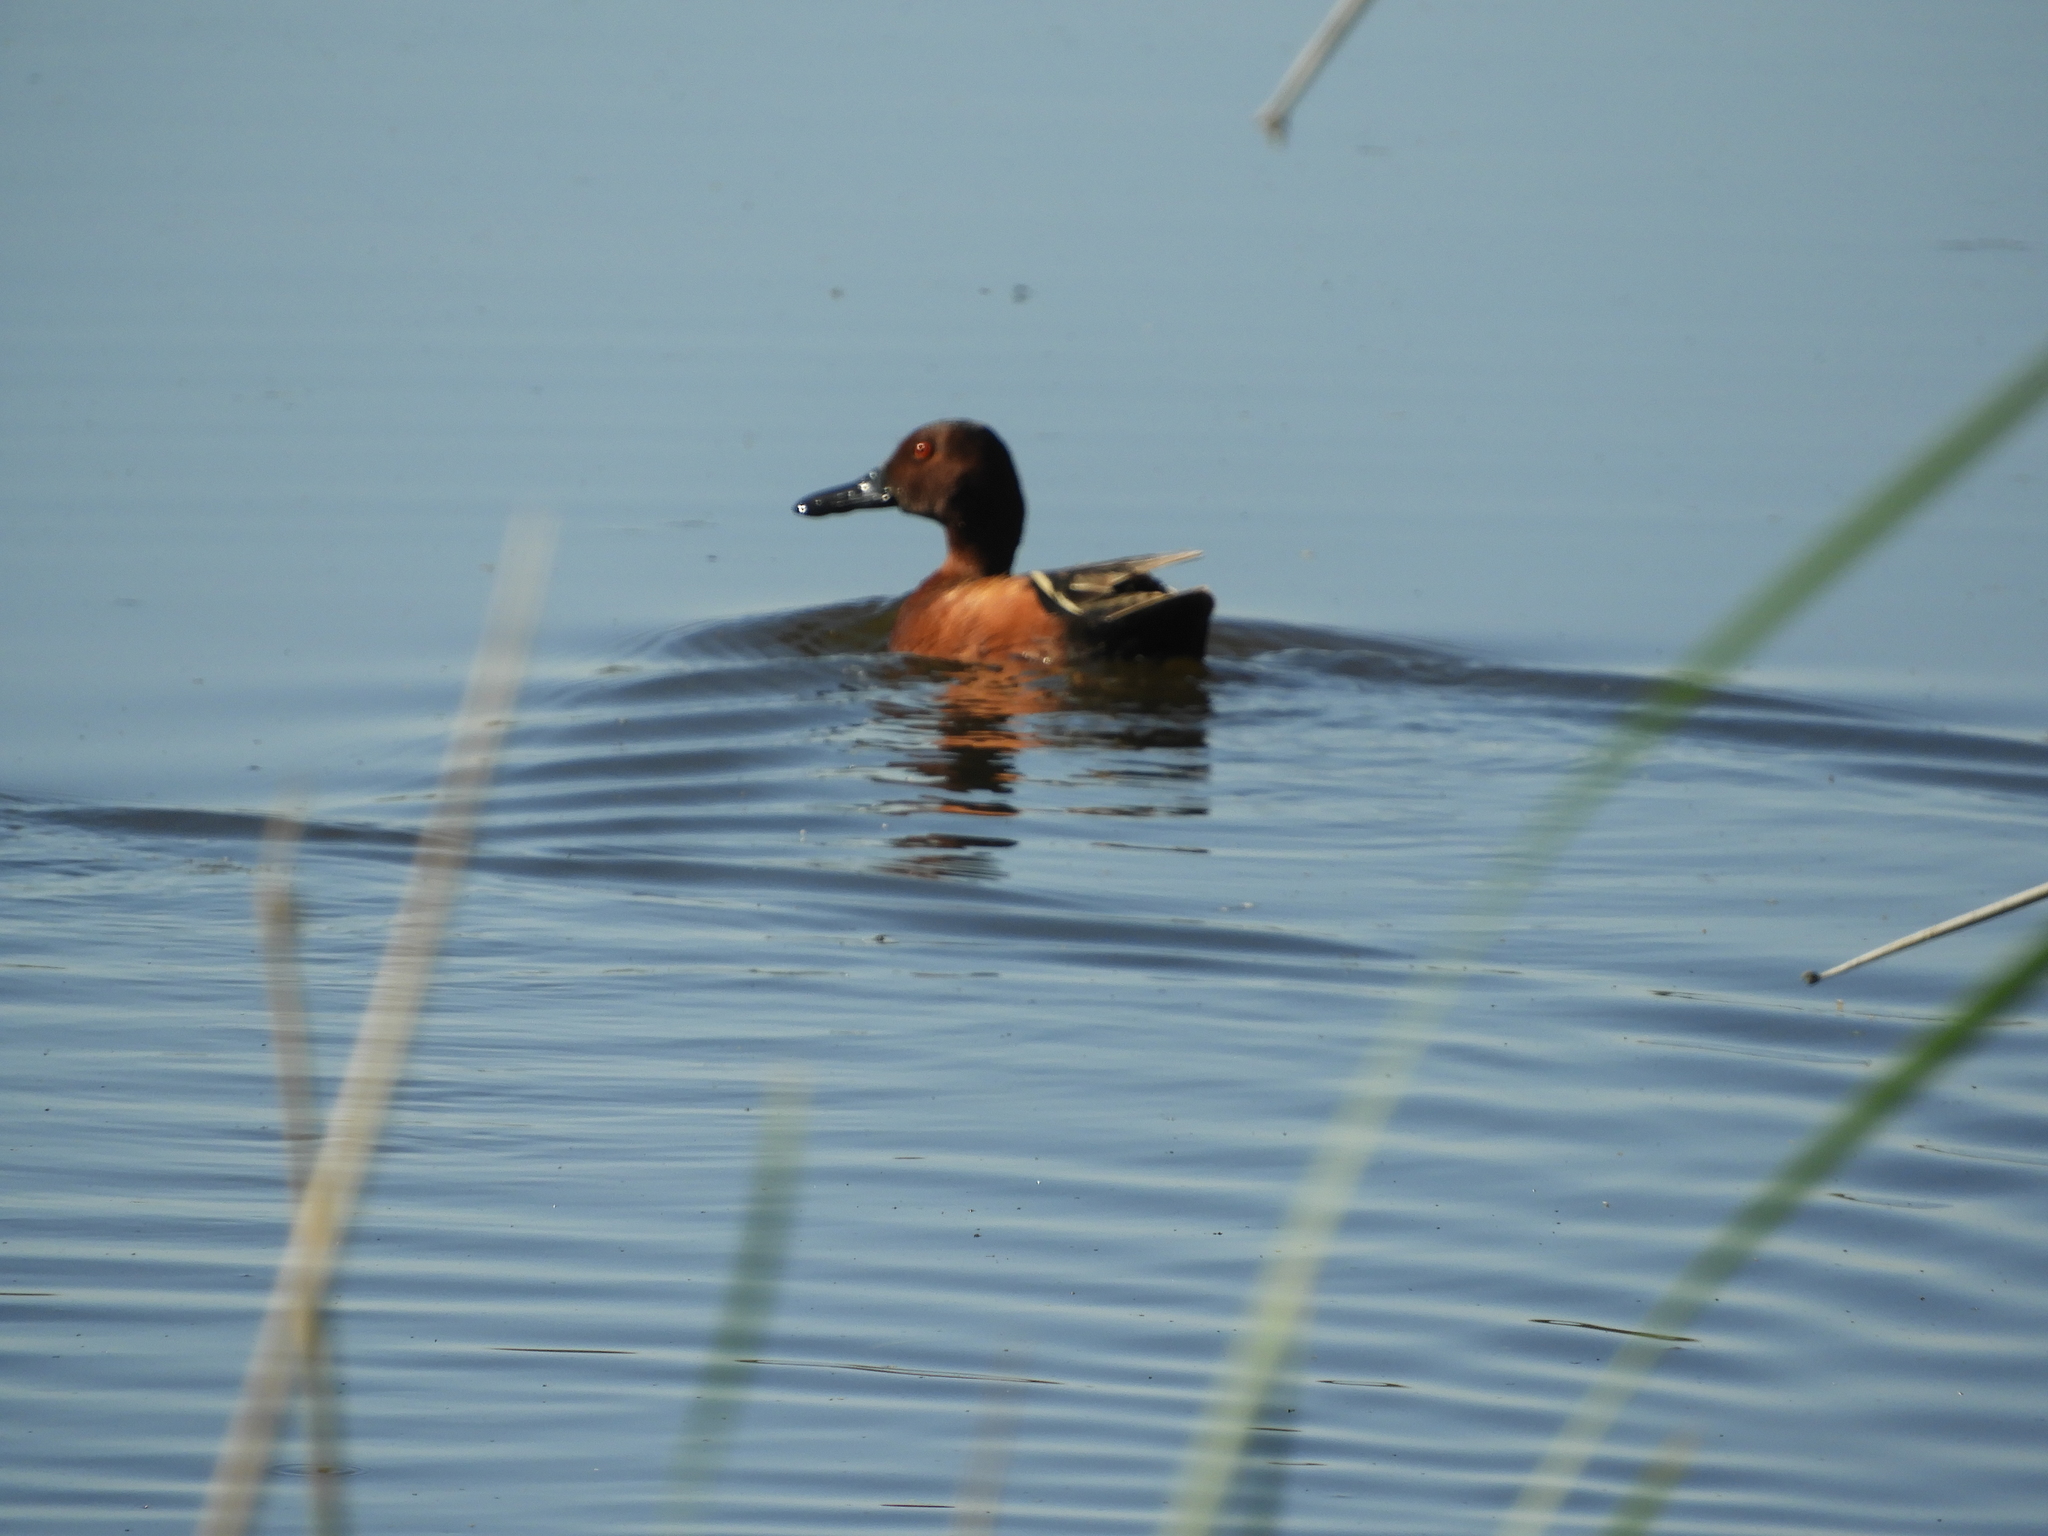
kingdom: Animalia
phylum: Chordata
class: Aves
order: Anseriformes
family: Anatidae
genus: Spatula
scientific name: Spatula cyanoptera
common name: Cinnamon teal
